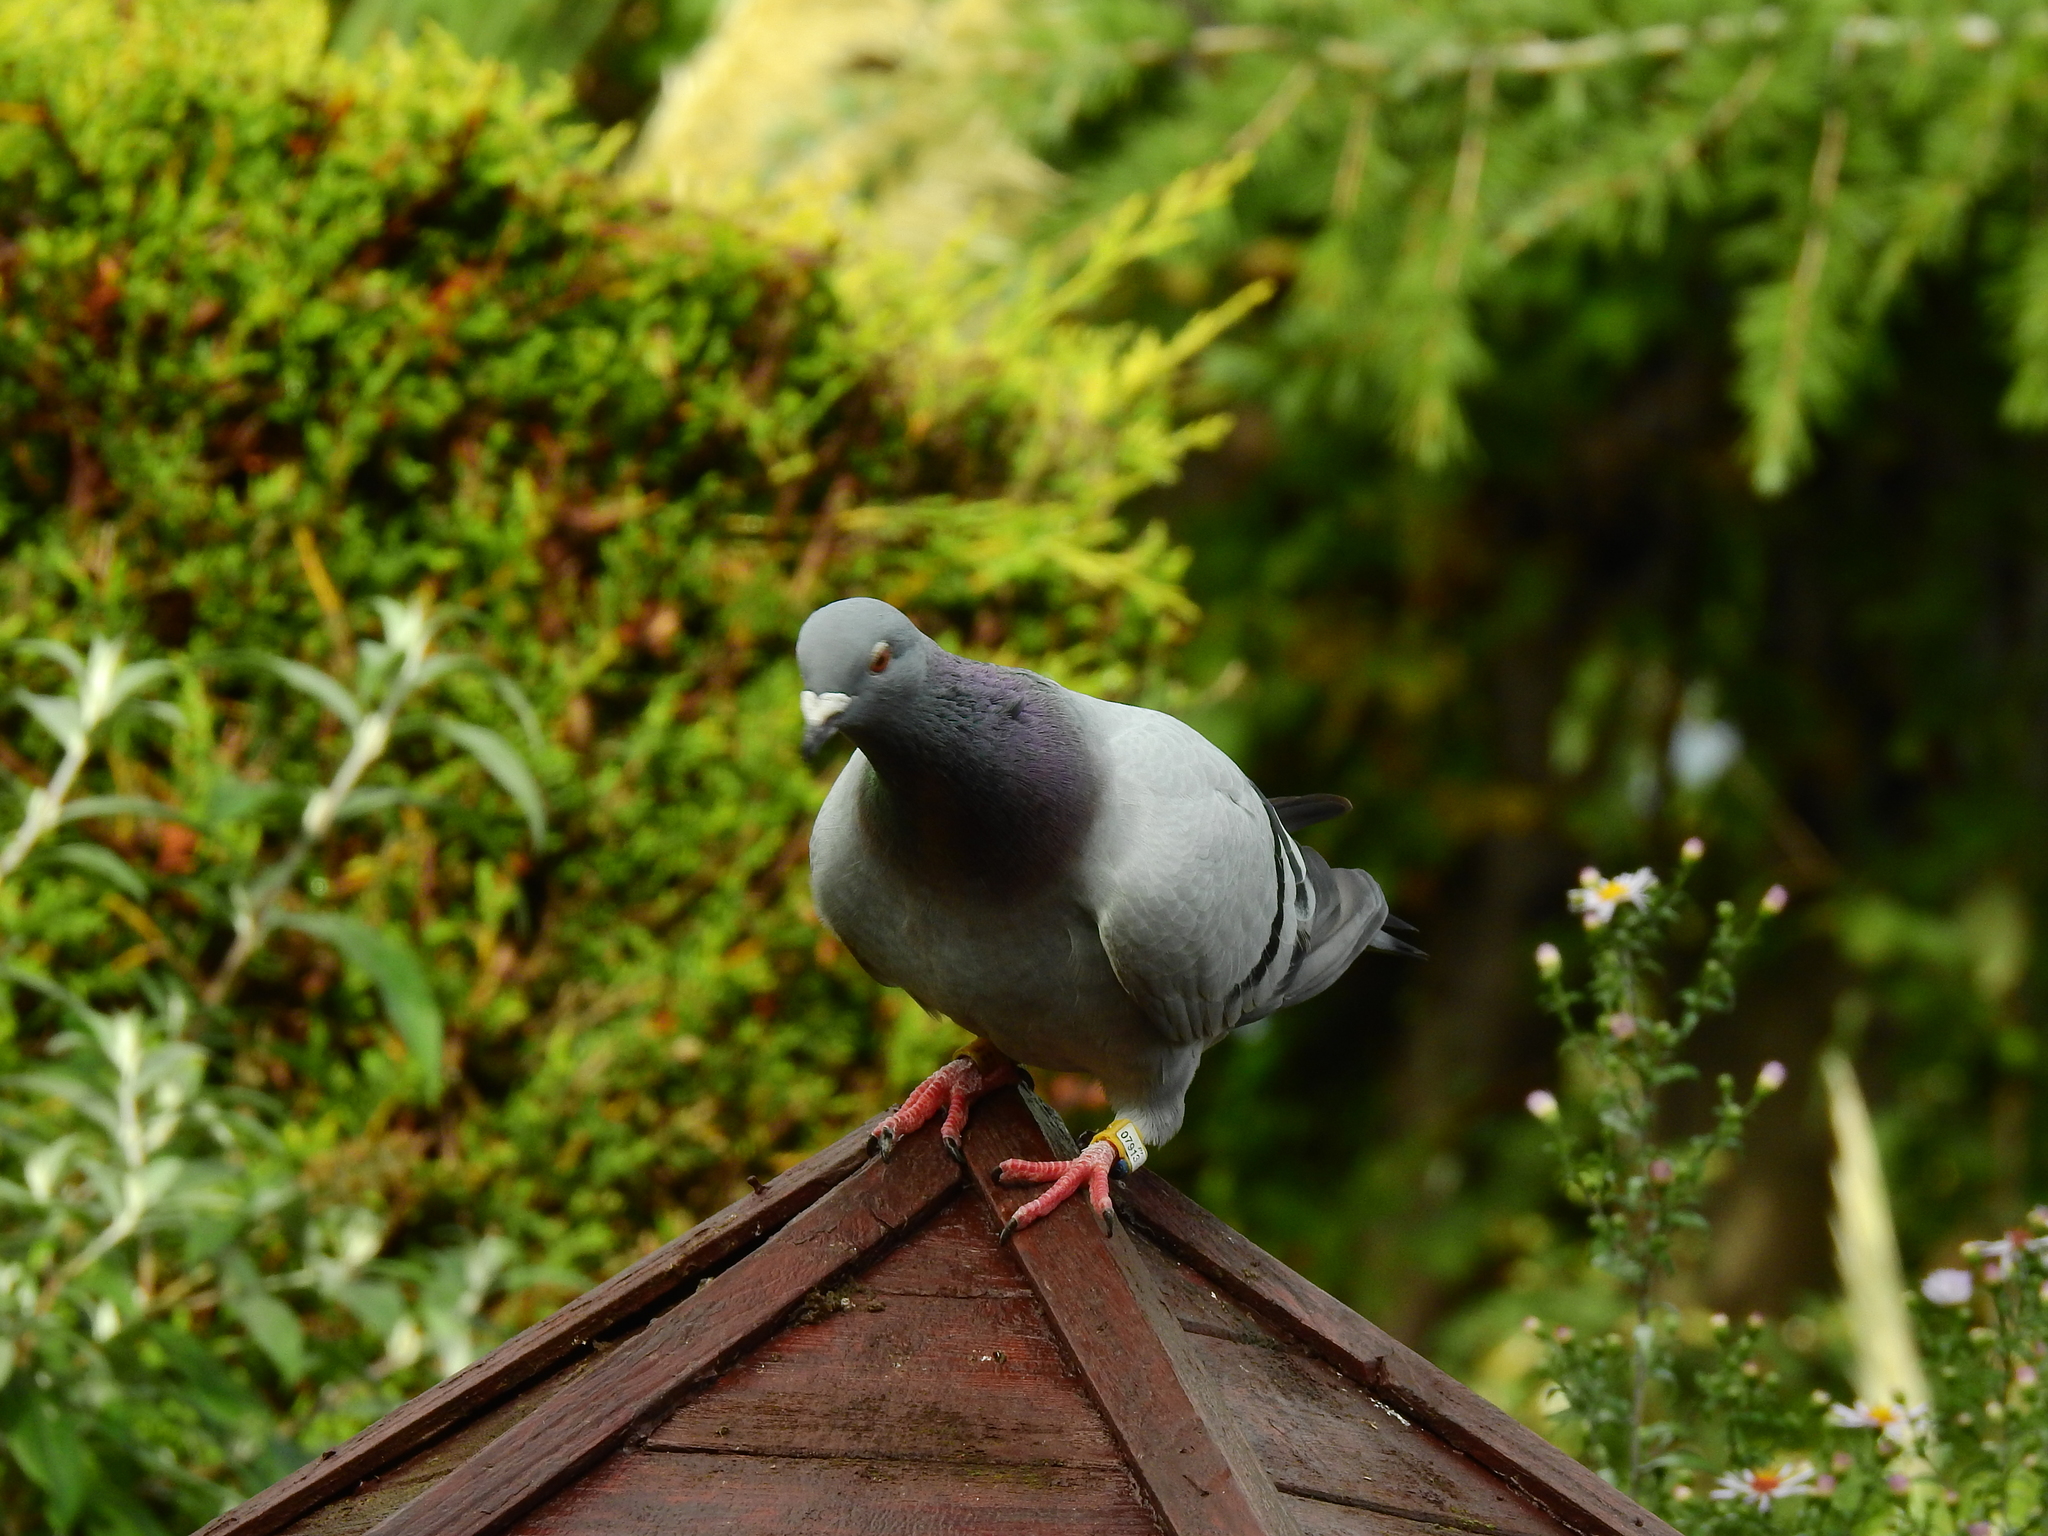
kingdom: Animalia
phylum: Chordata
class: Aves
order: Columbiformes
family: Columbidae
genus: Columba
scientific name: Columba livia
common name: Rock pigeon
